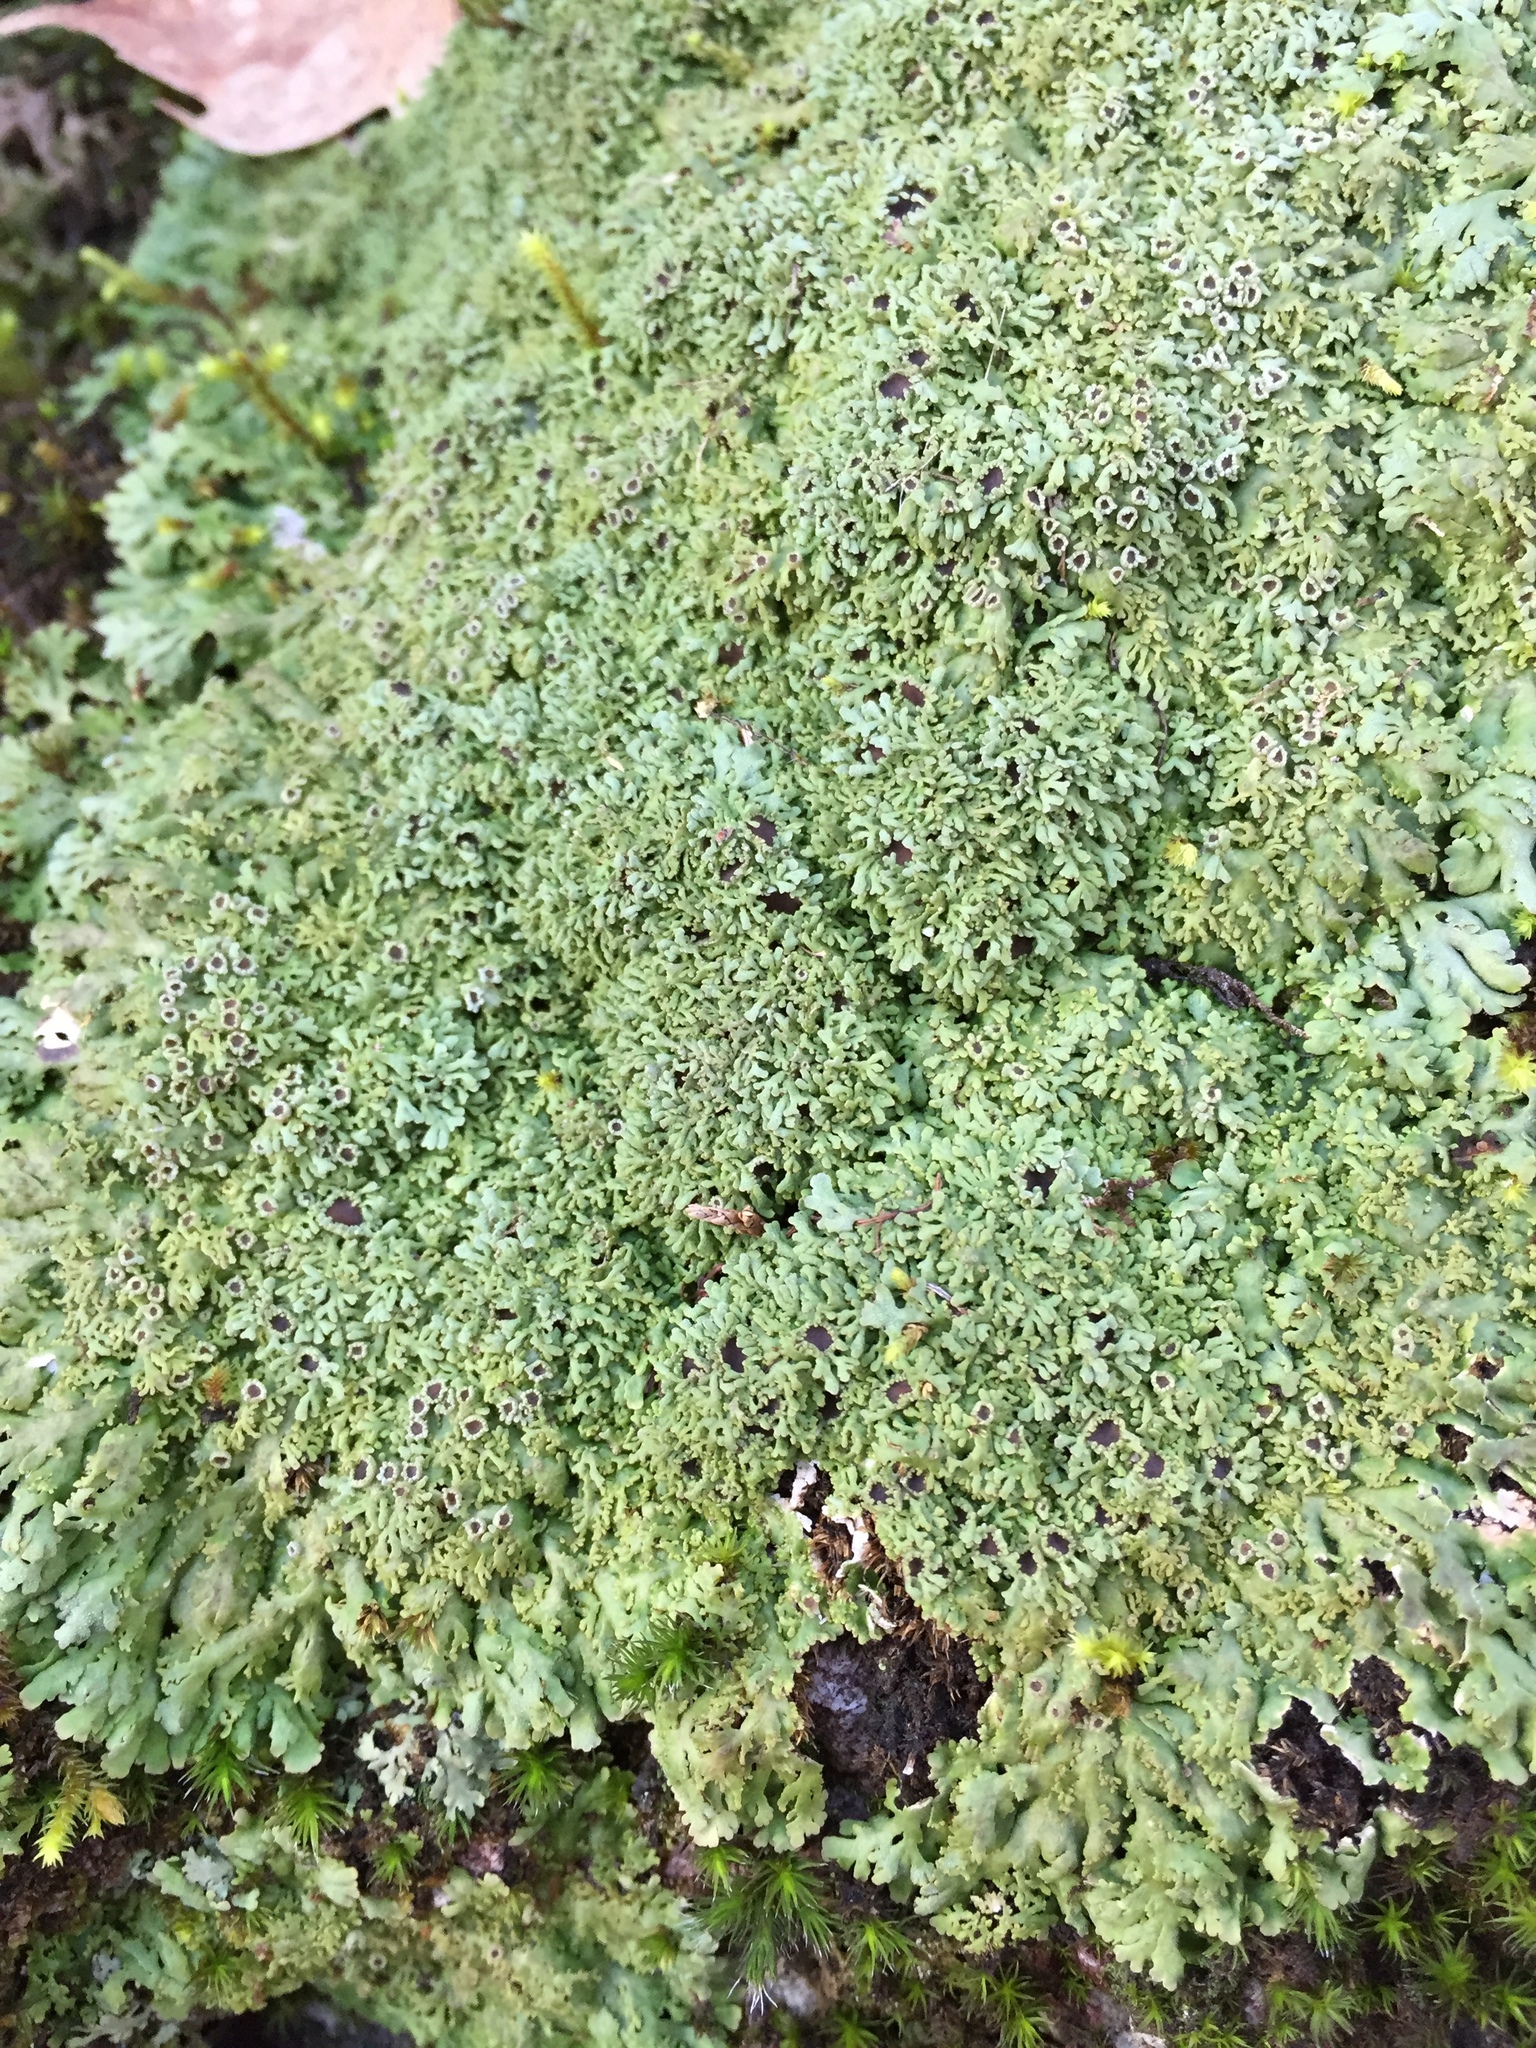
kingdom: Fungi
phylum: Ascomycota
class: Lecanoromycetes
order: Caliciales
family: Physciaceae
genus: Kurokawia
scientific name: Kurokawia palmulata
